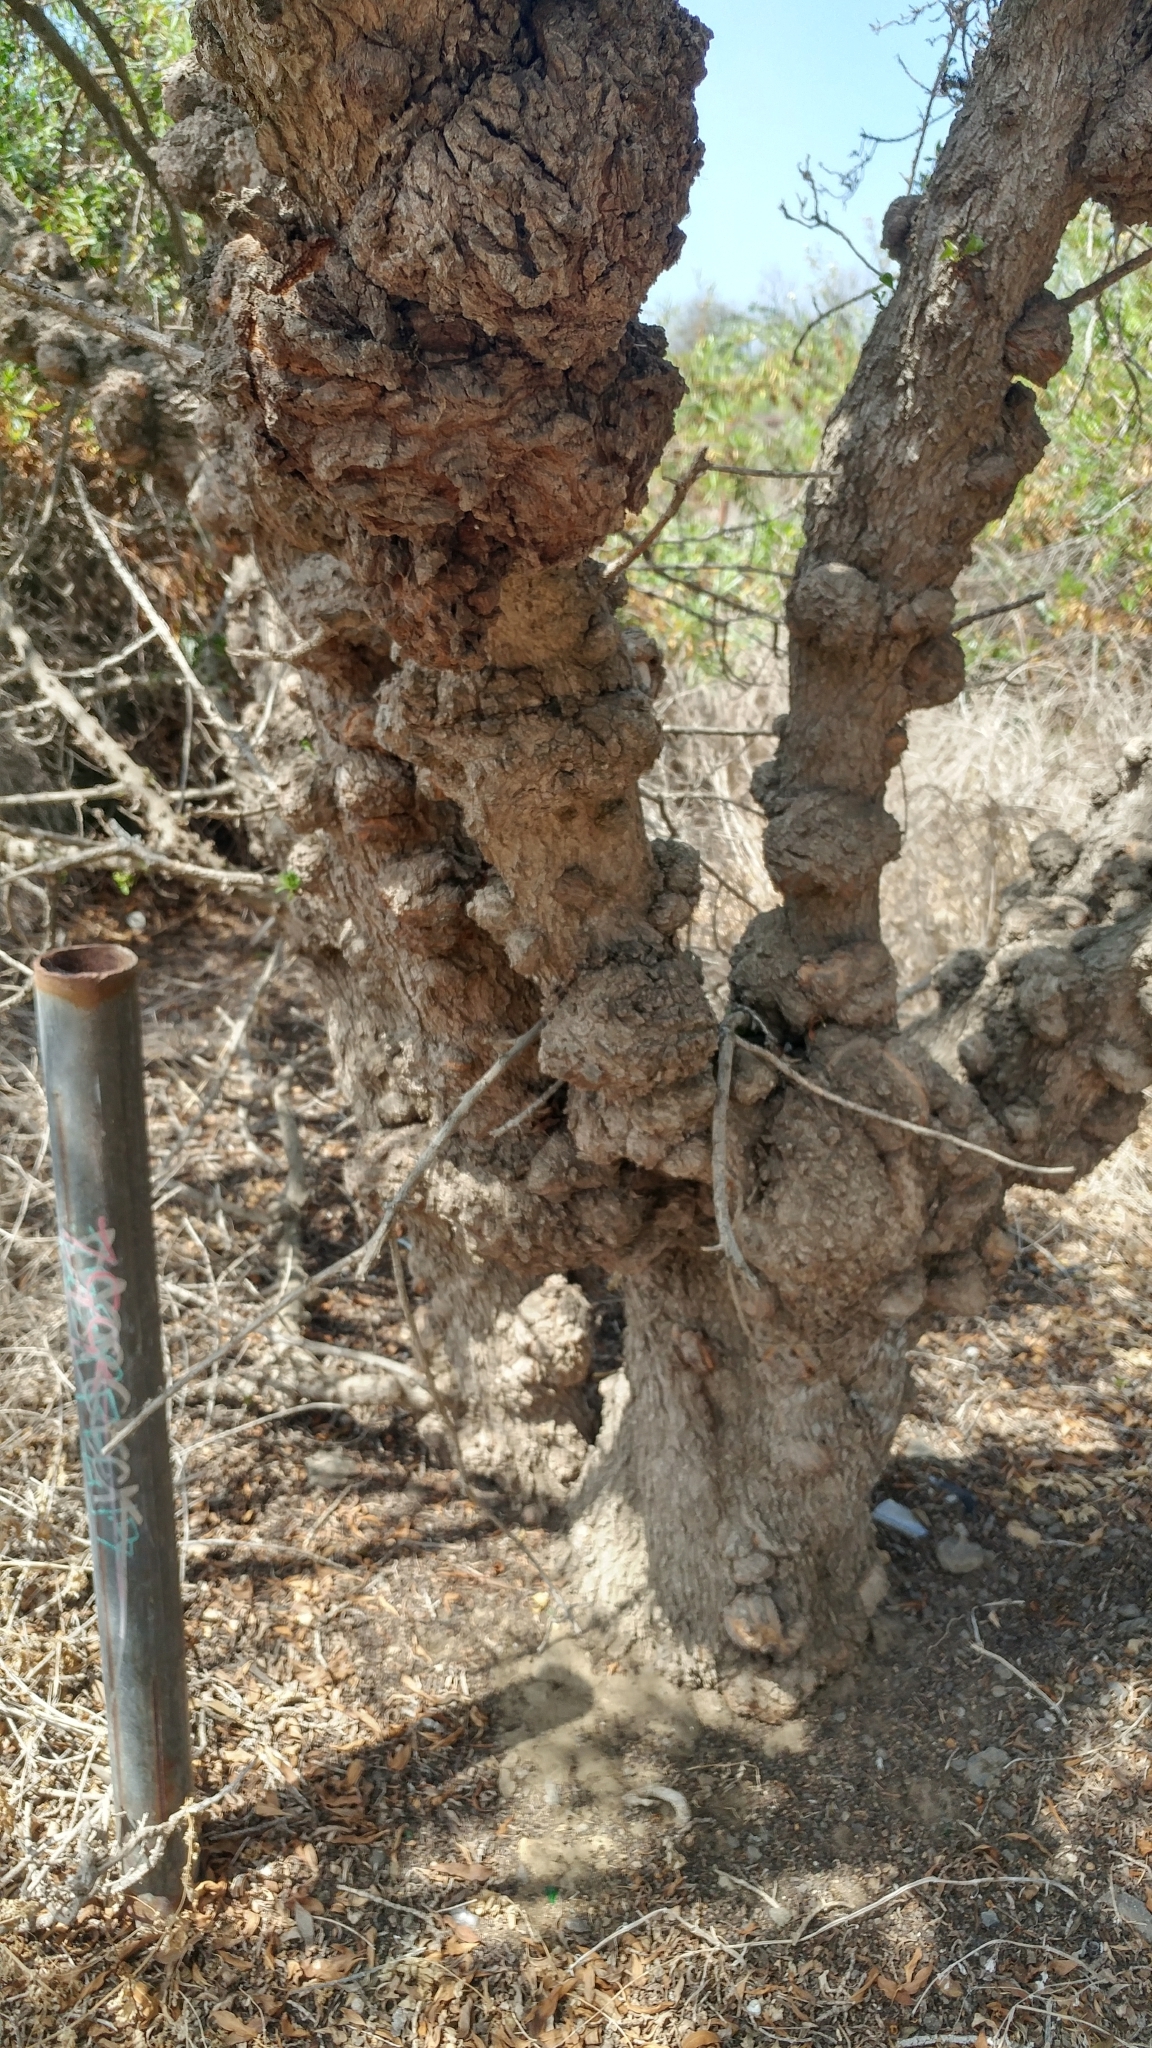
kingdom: Plantae
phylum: Tracheophyta
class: Magnoliopsida
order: Lamiales
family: Scrophulariaceae
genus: Myoporum
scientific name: Myoporum laetum
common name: Ngaio tree
